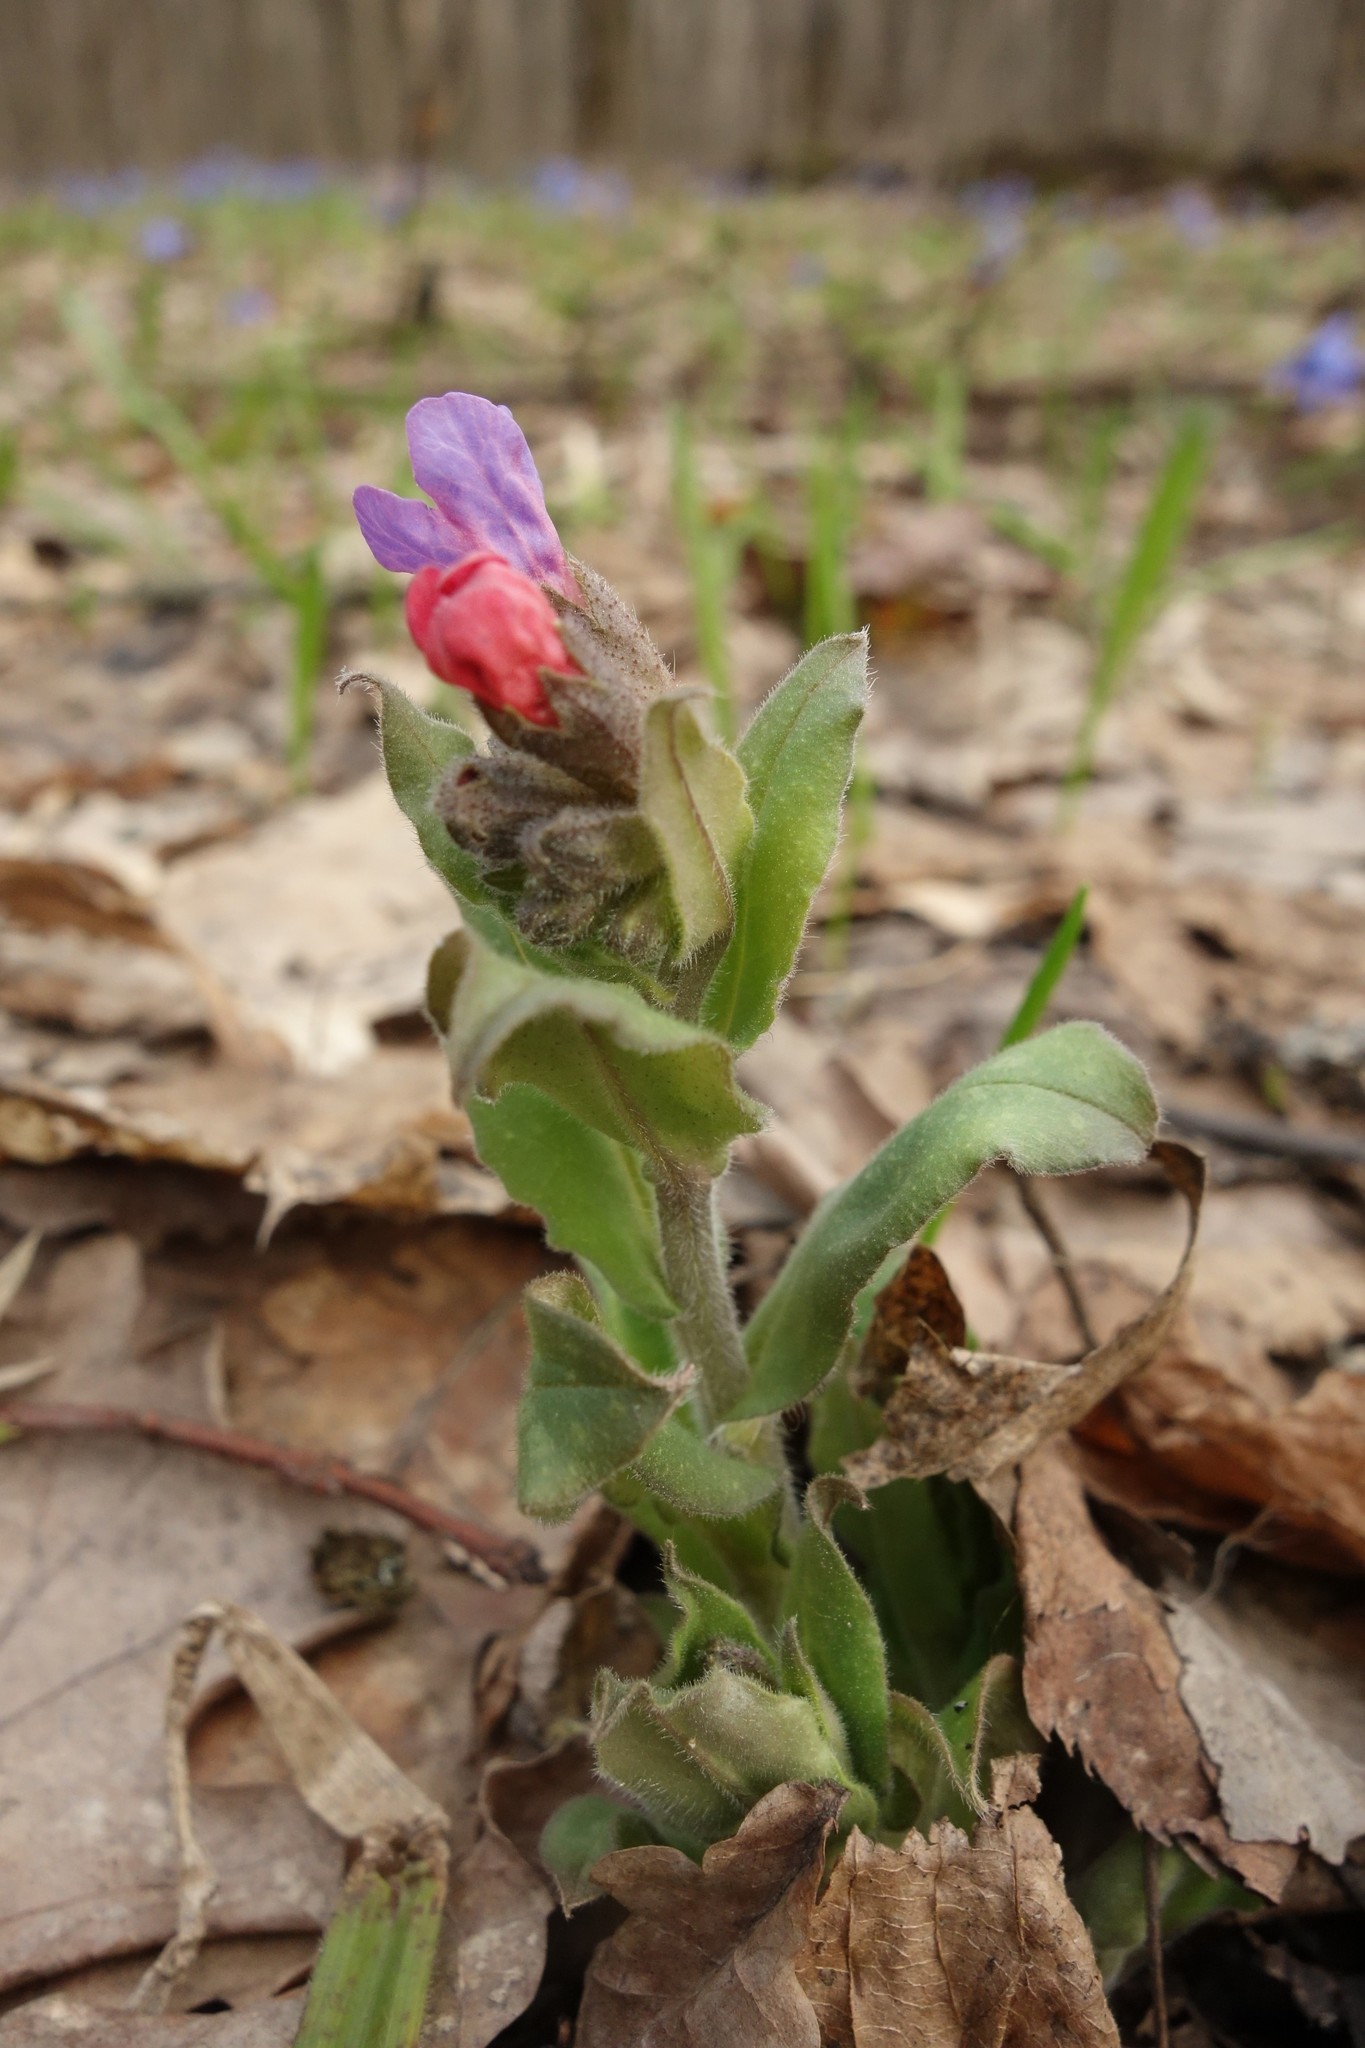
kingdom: Plantae
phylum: Tracheophyta
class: Magnoliopsida
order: Boraginales
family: Boraginaceae
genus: Pulmonaria
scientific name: Pulmonaria obscura
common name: Suffolk lungwort
